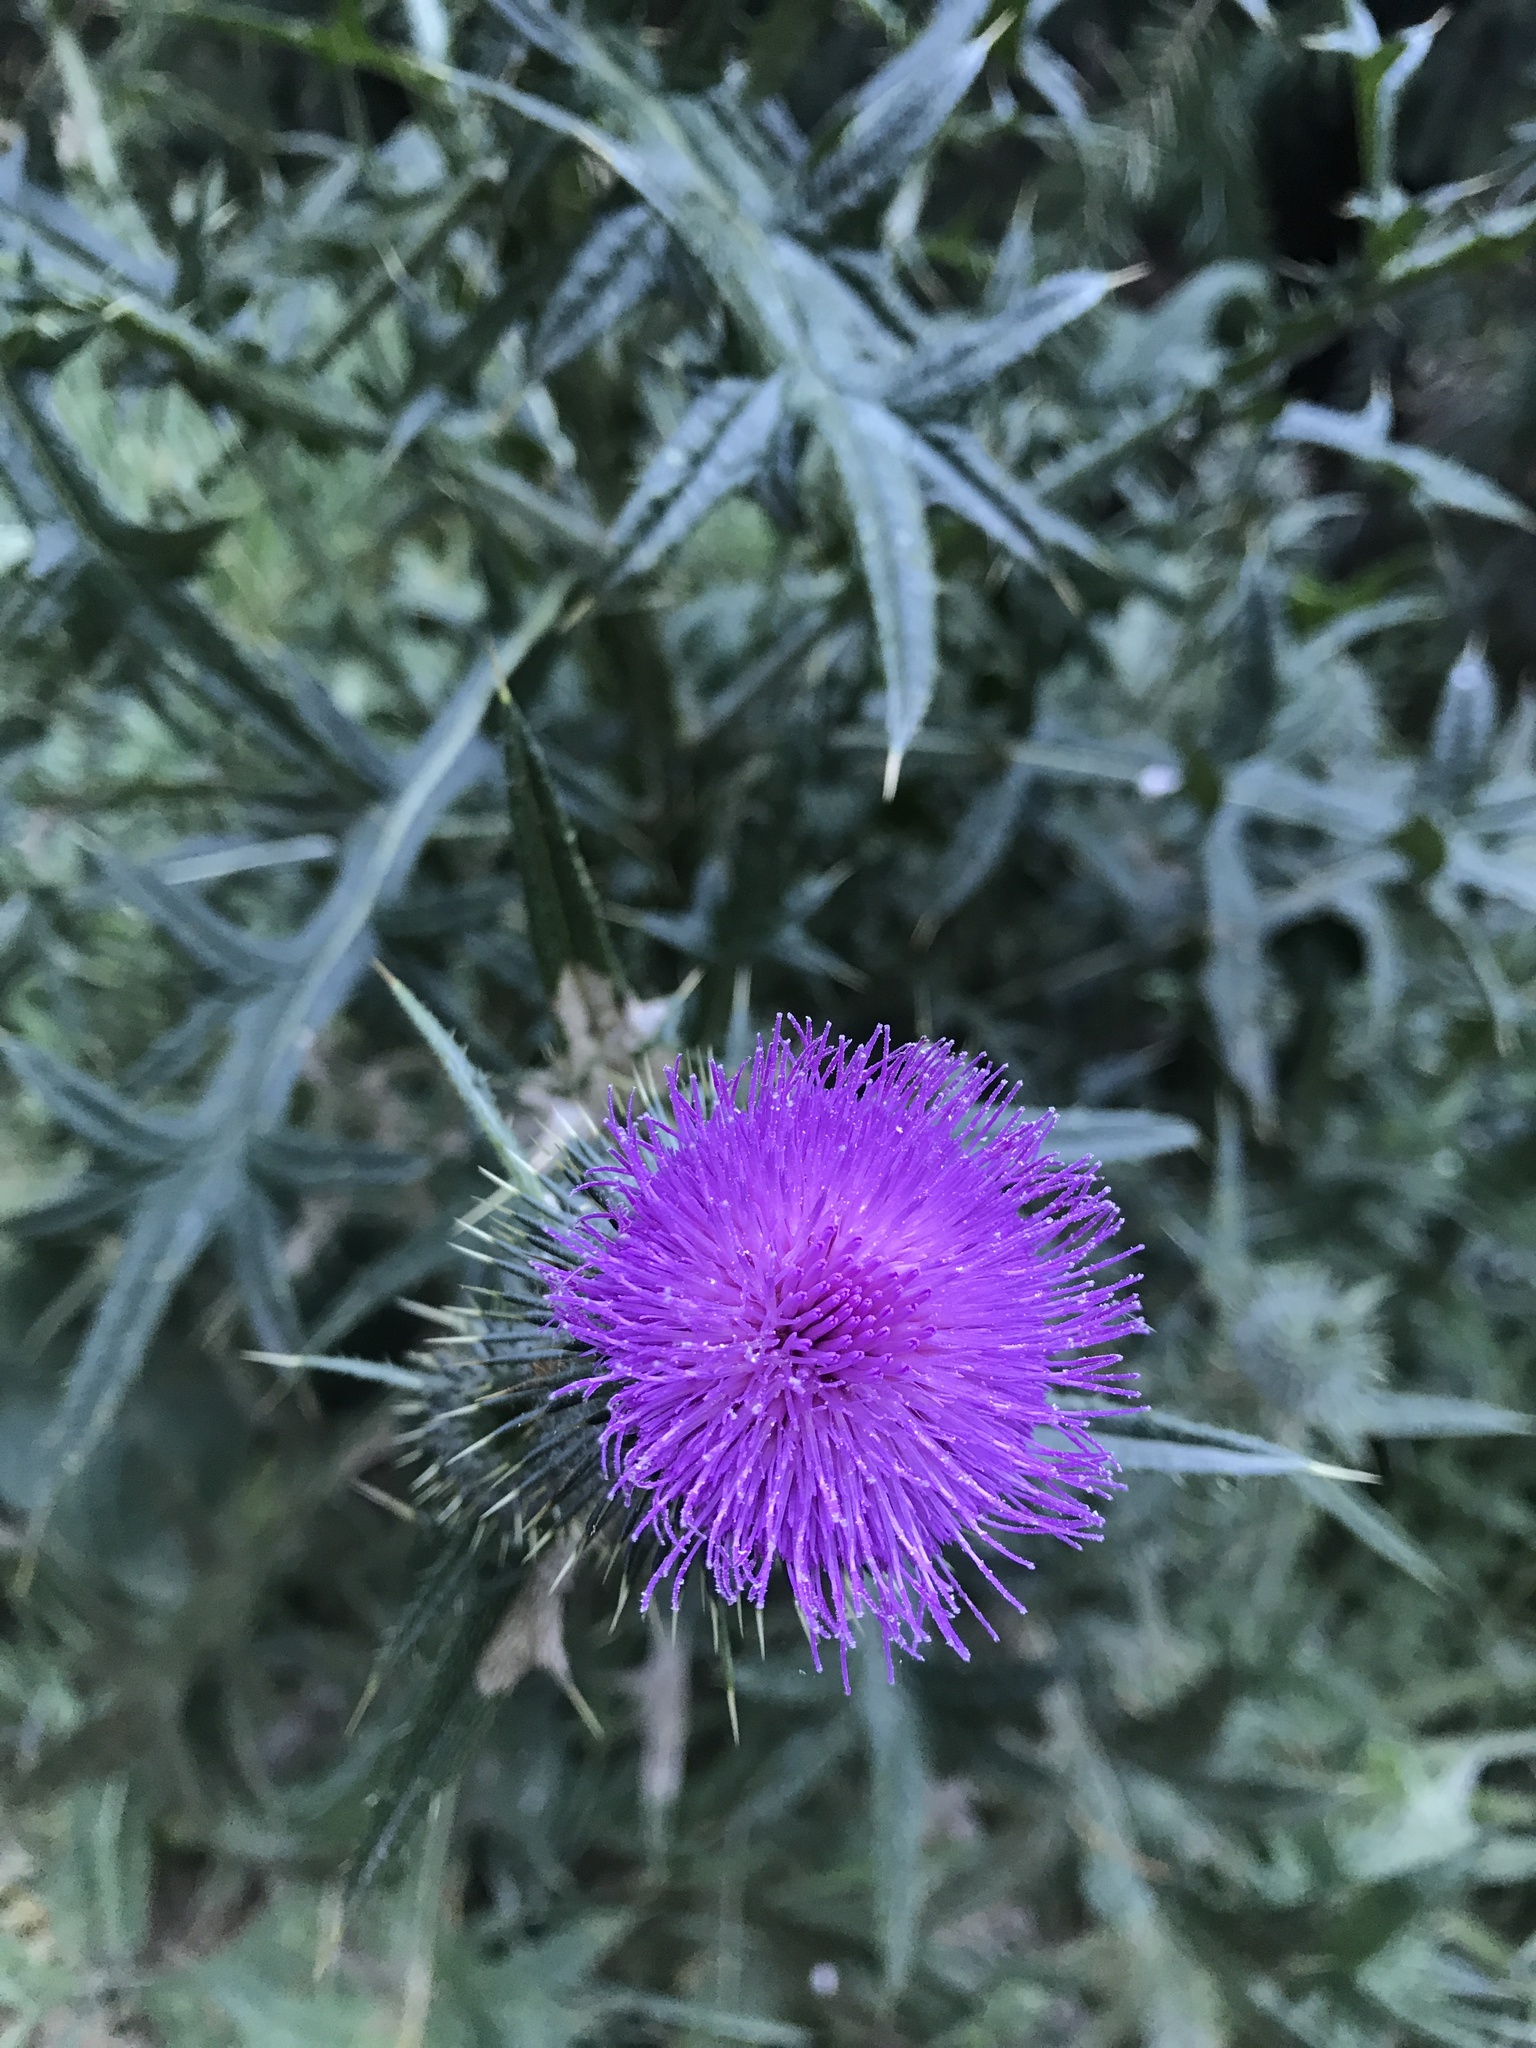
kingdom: Plantae
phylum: Tracheophyta
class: Magnoliopsida
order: Asterales
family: Asteraceae
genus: Cirsium
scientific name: Cirsium vulgare
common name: Bull thistle
